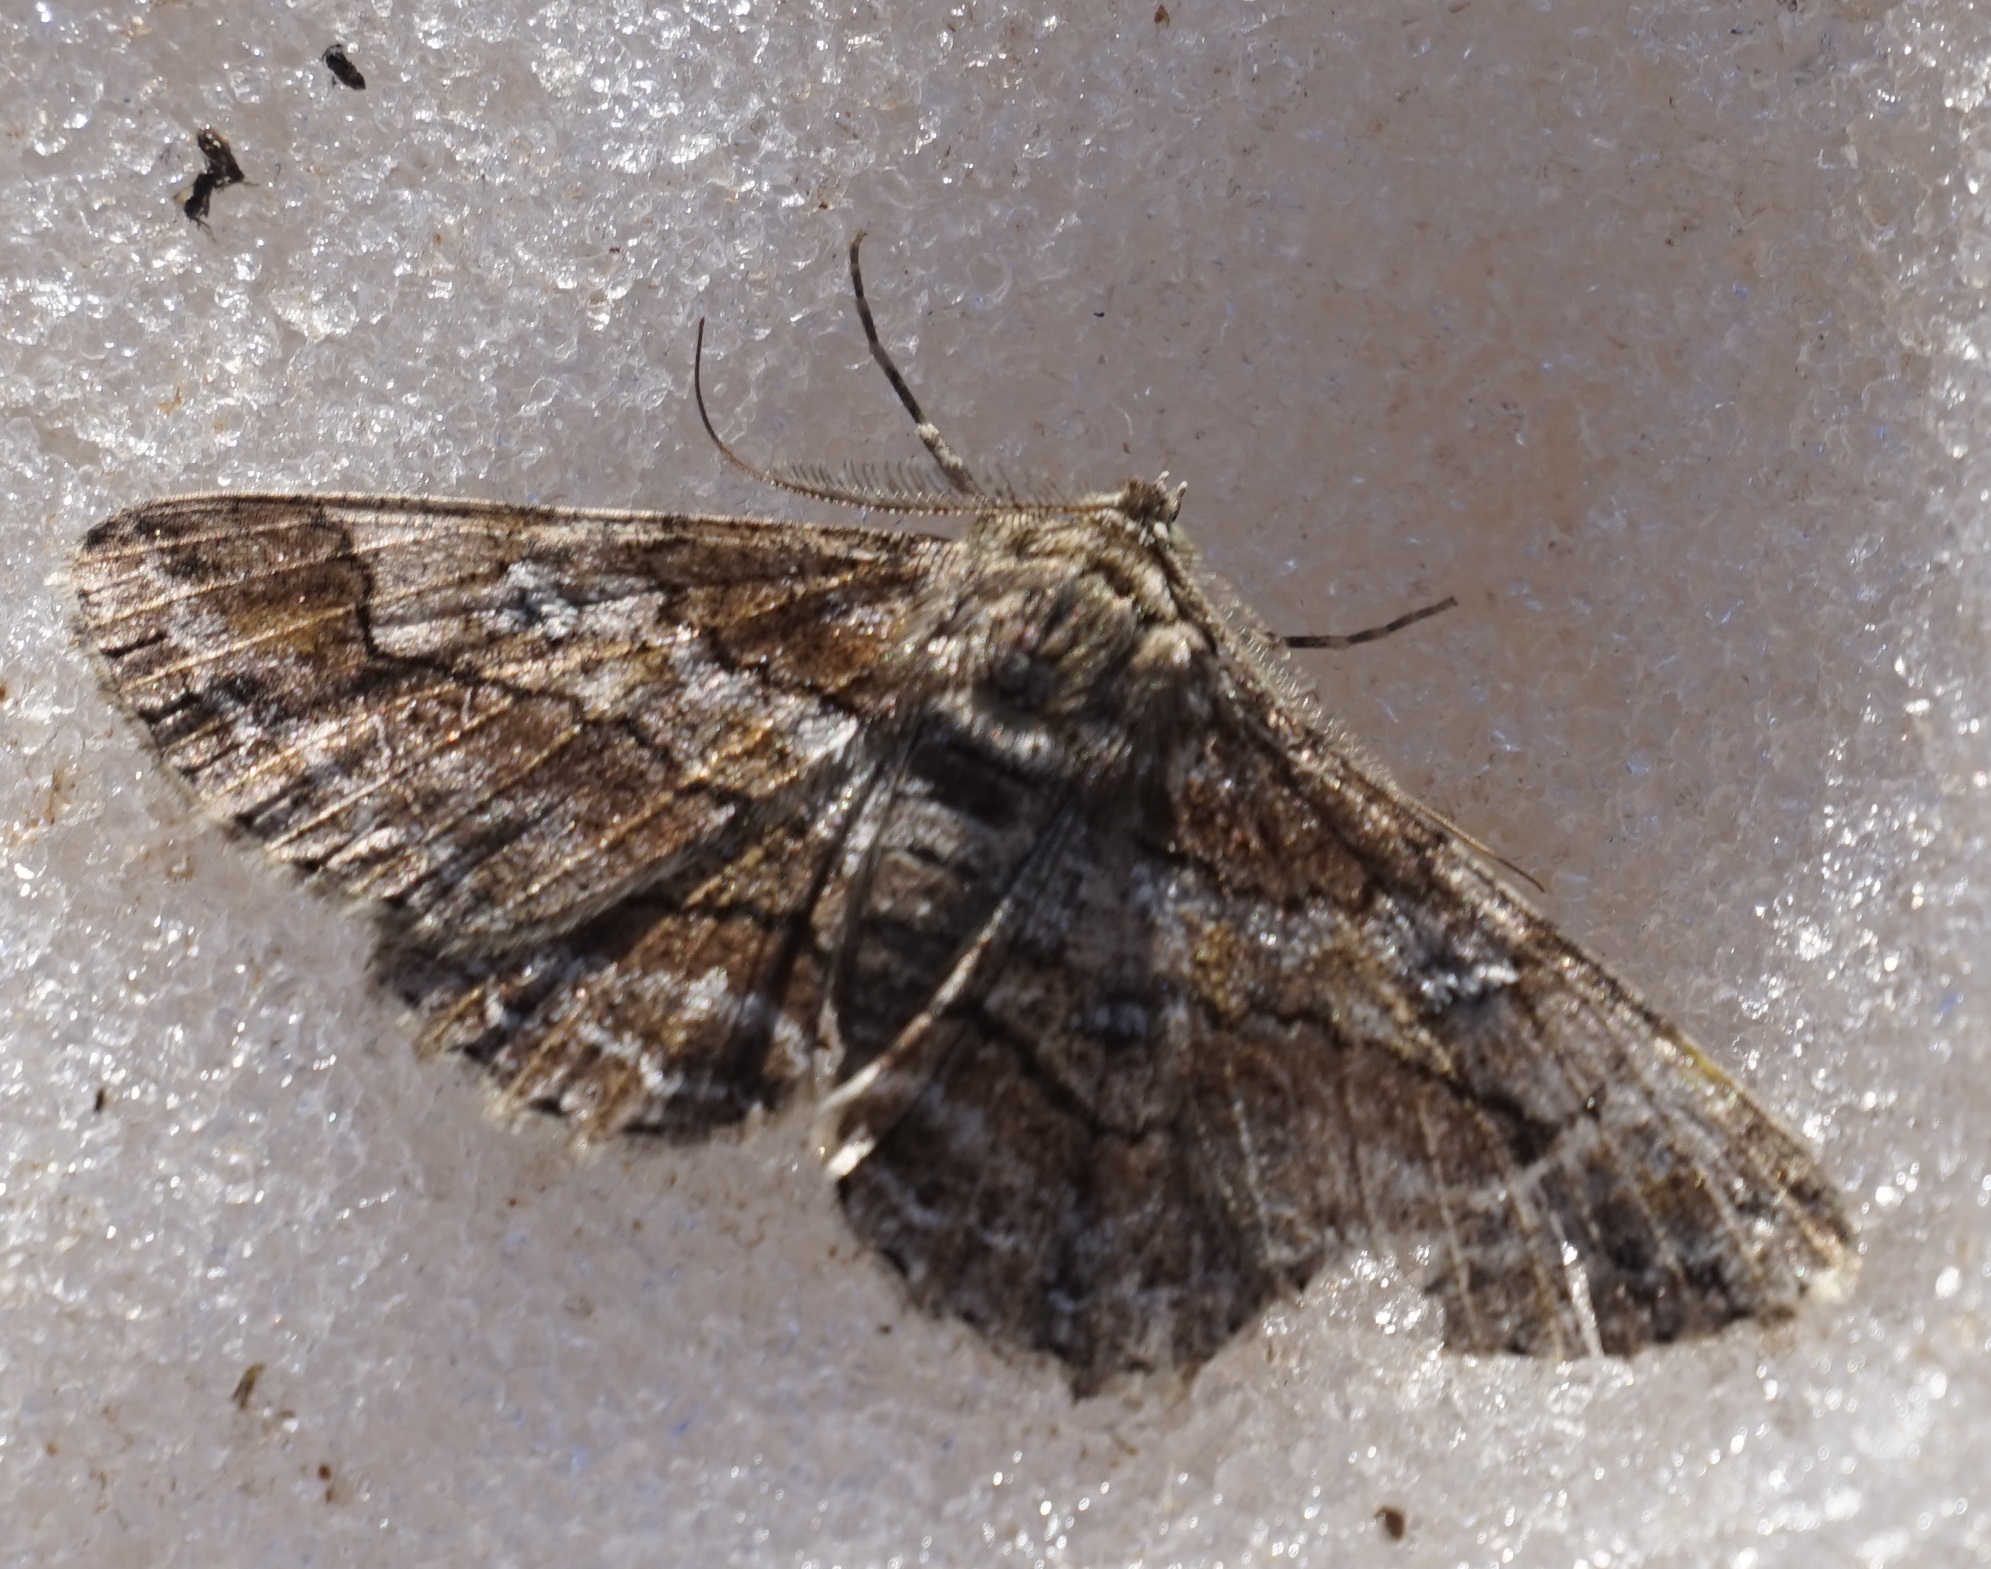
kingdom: Animalia
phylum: Arthropoda
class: Insecta
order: Lepidoptera
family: Geometridae
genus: Cleora
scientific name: Cleora
